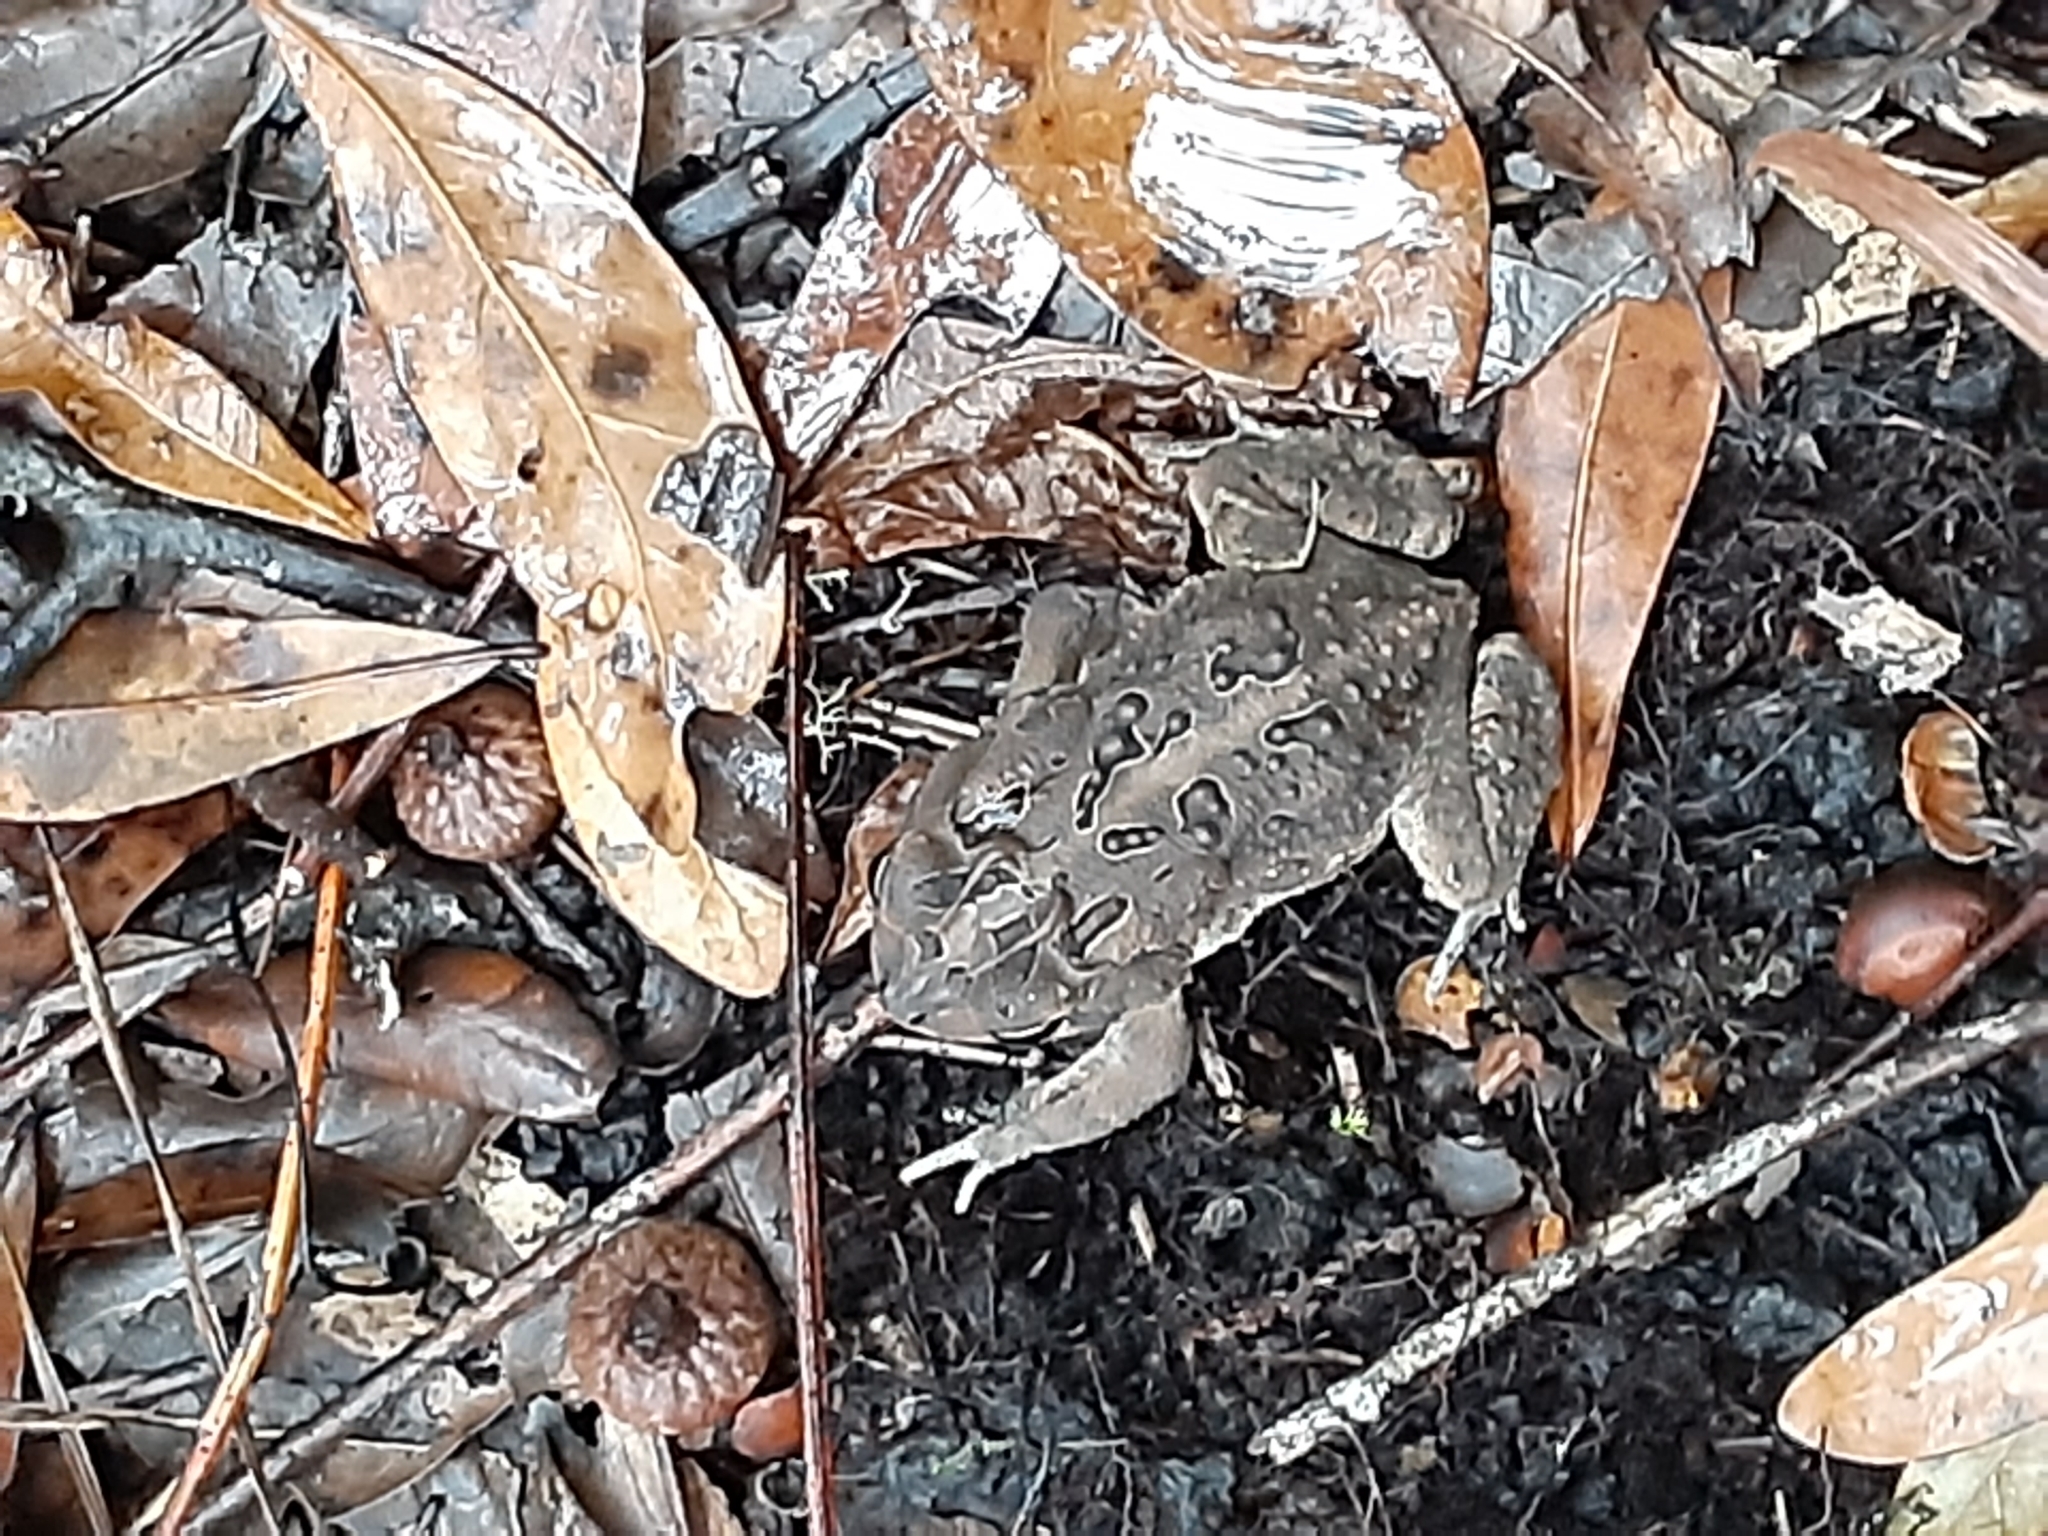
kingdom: Animalia
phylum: Chordata
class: Amphibia
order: Anura
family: Bufonidae
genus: Anaxyrus
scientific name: Anaxyrus terrestris
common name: Southern toad
